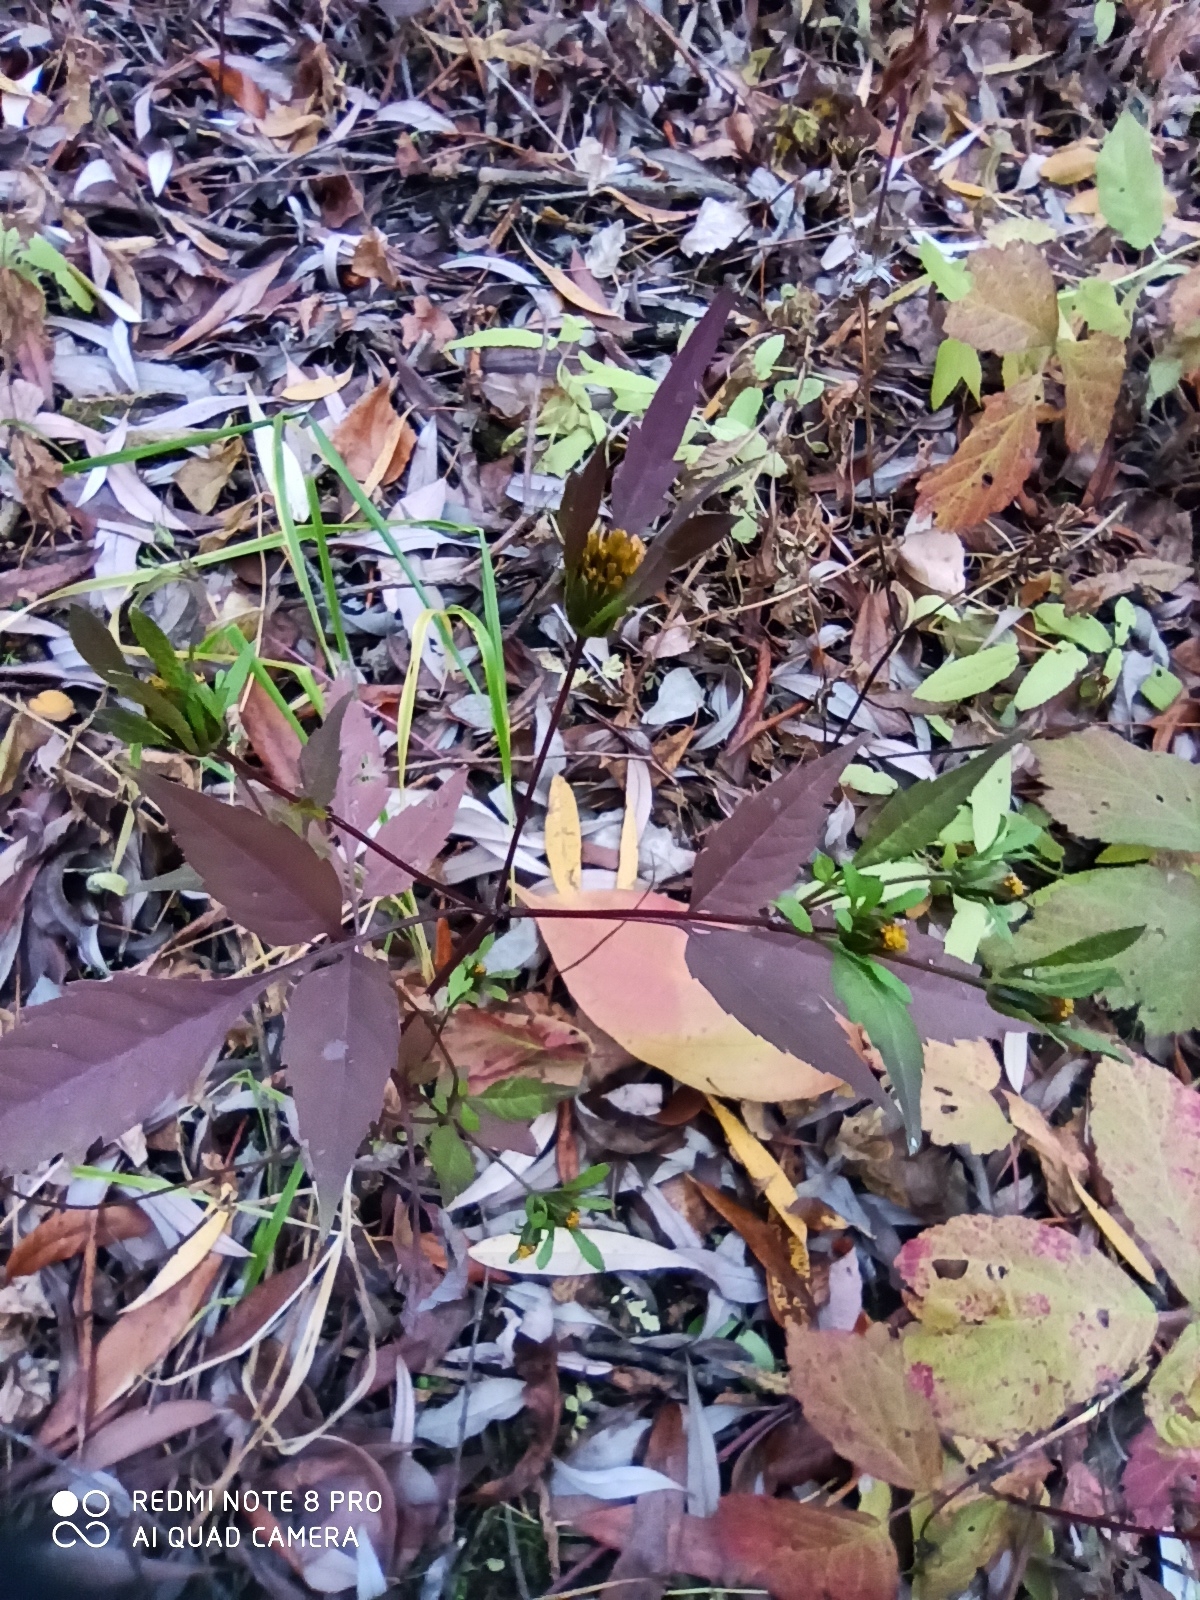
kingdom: Plantae
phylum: Tracheophyta
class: Magnoliopsida
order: Asterales
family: Asteraceae
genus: Bidens
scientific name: Bidens frondosa
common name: Beggarticks
